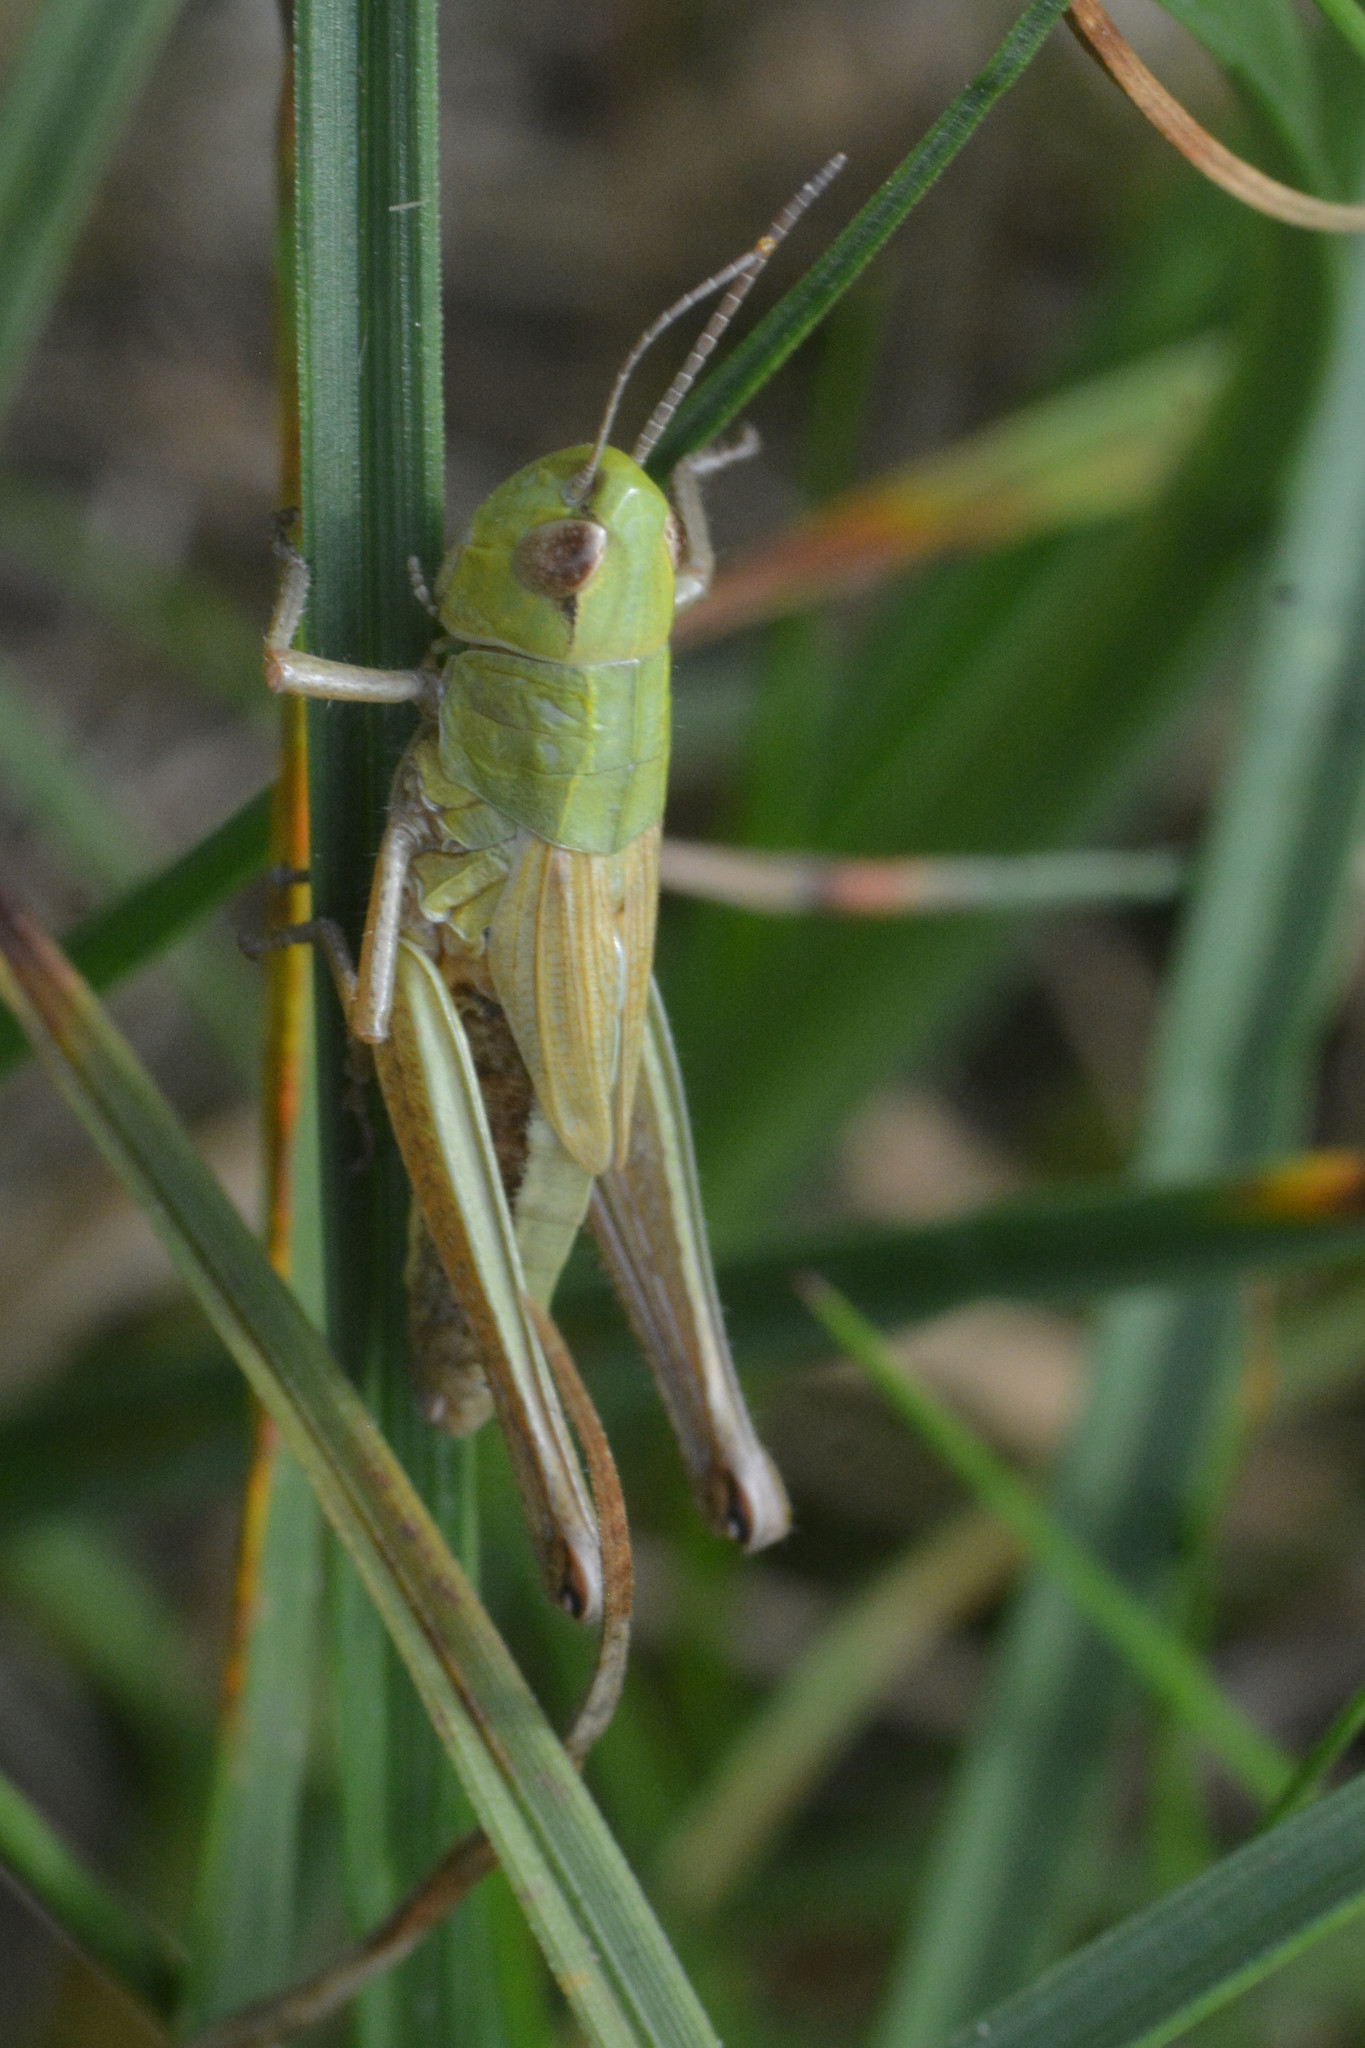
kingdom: Animalia
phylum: Arthropoda
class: Insecta
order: Orthoptera
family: Acrididae
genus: Pseudochorthippus
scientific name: Pseudochorthippus parallelus
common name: Meadow grasshopper
